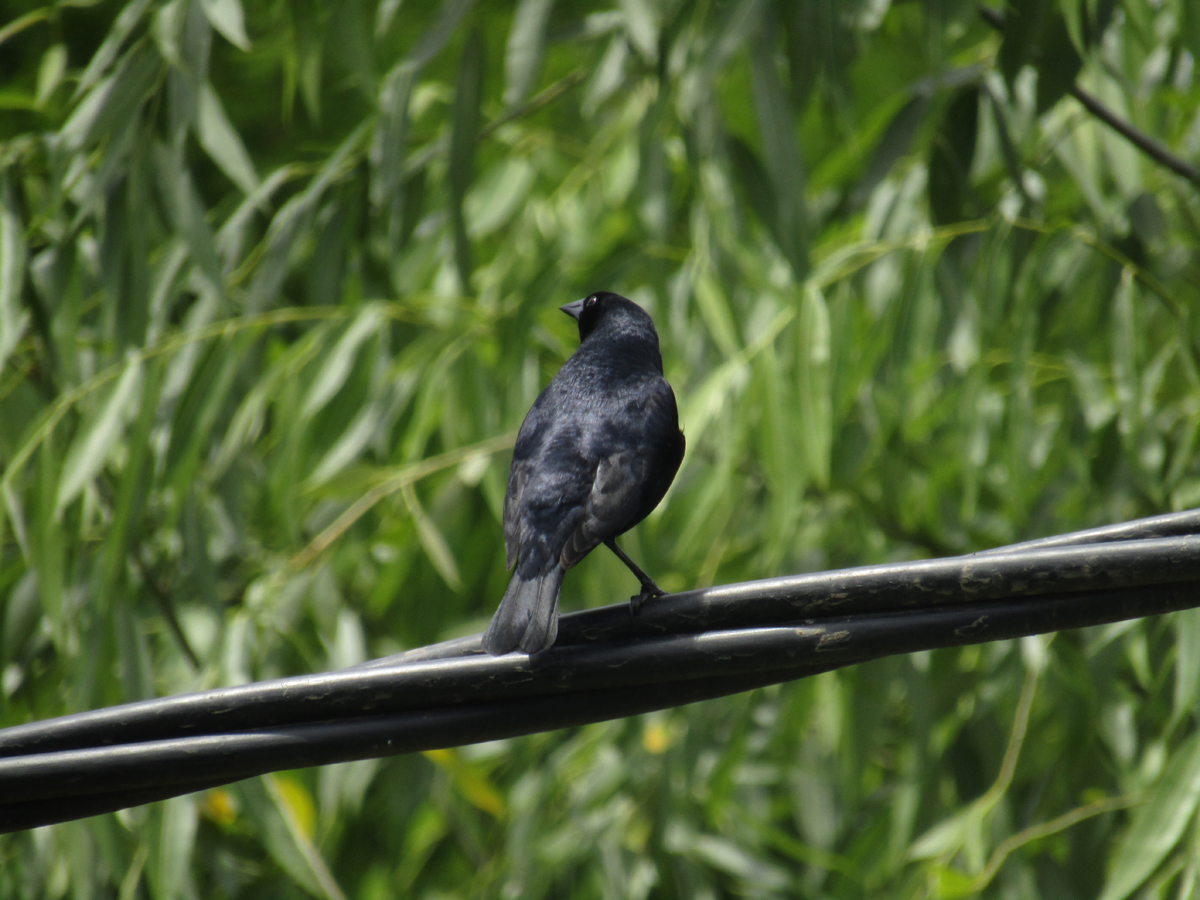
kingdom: Animalia
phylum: Chordata
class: Aves
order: Passeriformes
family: Icteridae
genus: Molothrus
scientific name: Molothrus bonariensis
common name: Shiny cowbird
